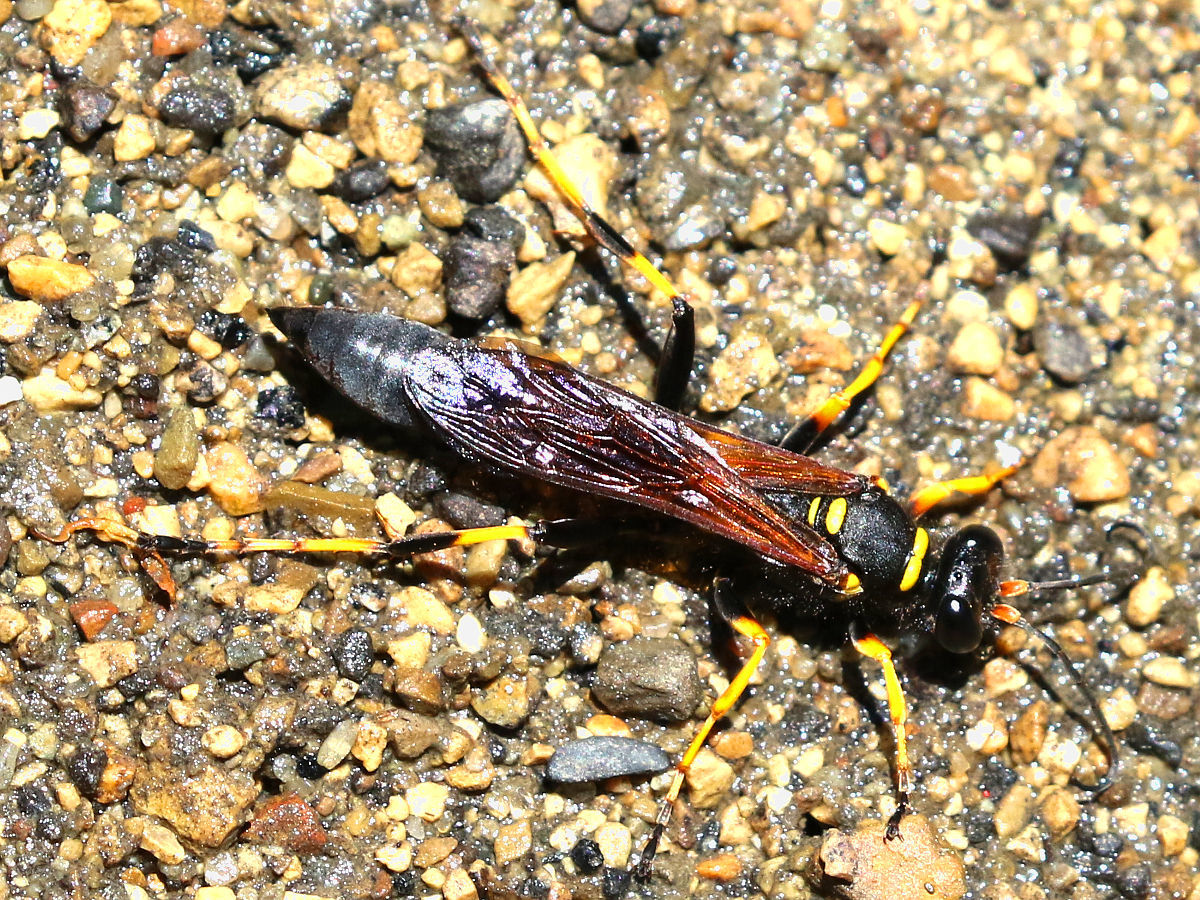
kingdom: Animalia
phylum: Arthropoda
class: Insecta
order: Hymenoptera
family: Sphecidae
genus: Sceliphron
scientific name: Sceliphron caementarium
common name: Mud dauber
